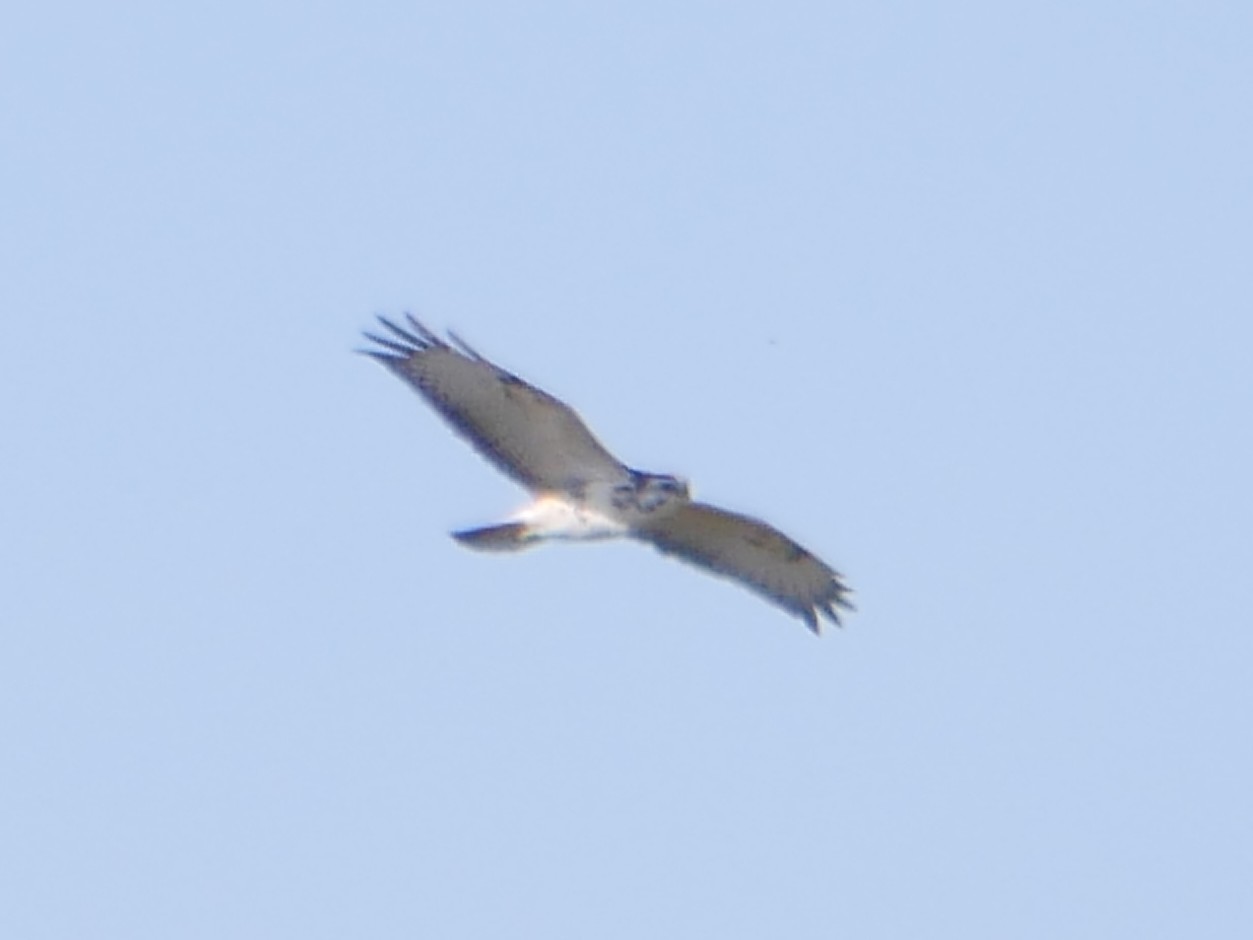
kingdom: Animalia
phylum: Chordata
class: Aves
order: Accipitriformes
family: Accipitridae
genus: Buteo
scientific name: Buteo buteo
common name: Common buzzard
